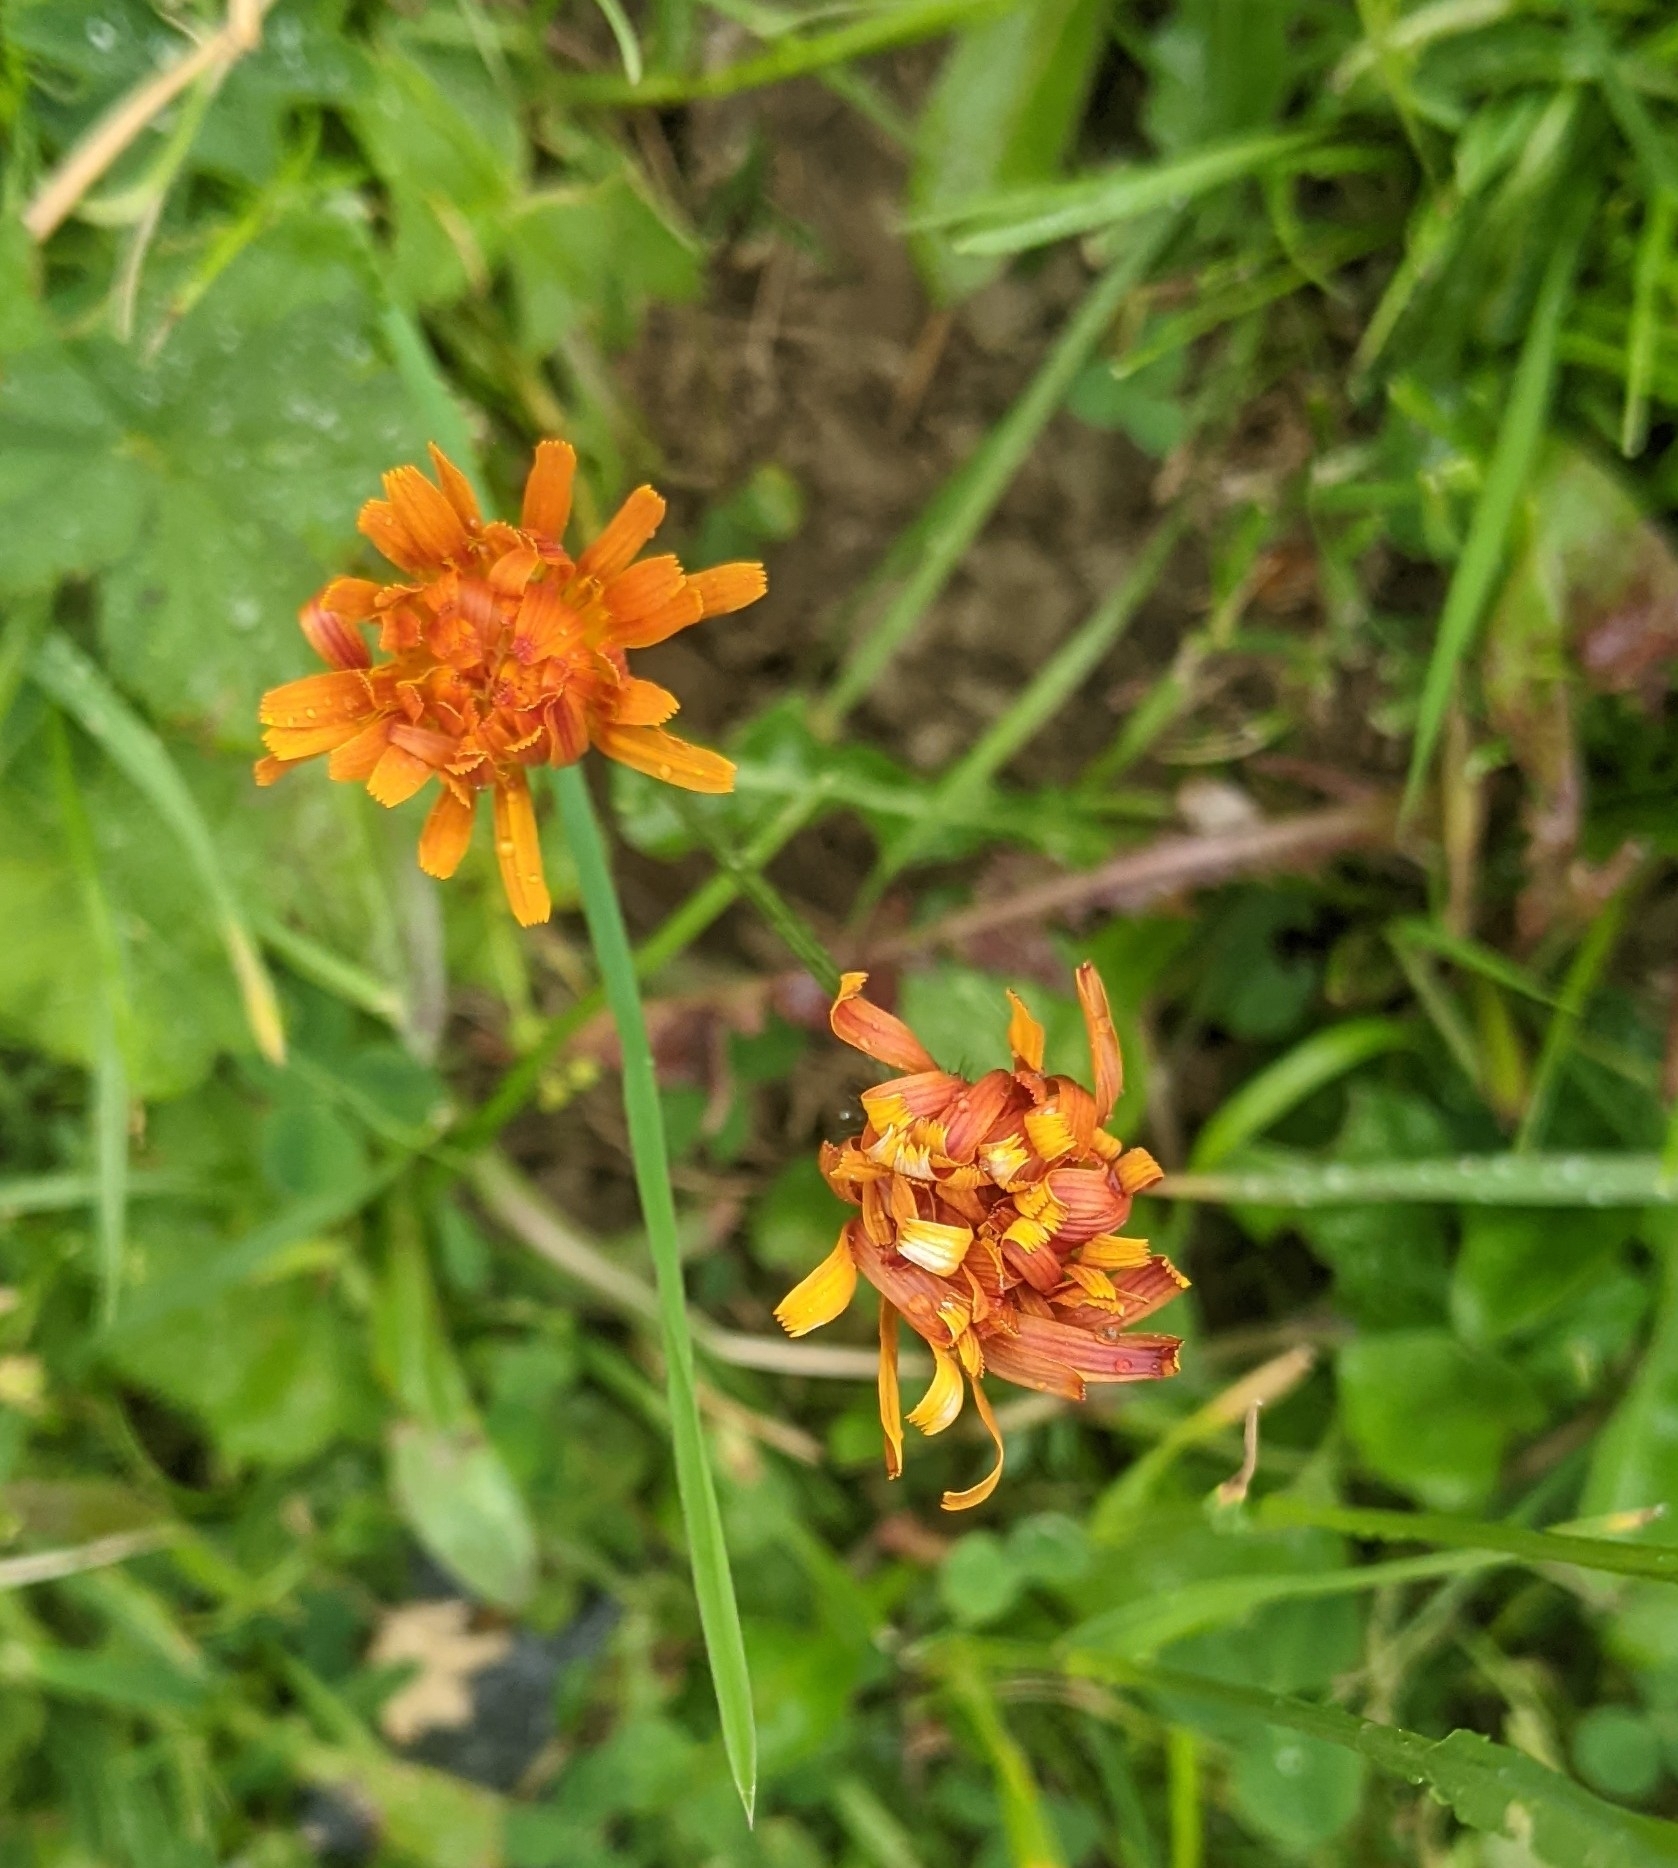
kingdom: Plantae
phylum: Tracheophyta
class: Magnoliopsida
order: Asterales
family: Asteraceae
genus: Crepis
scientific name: Crepis aurea
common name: Golden hawk's-beard
